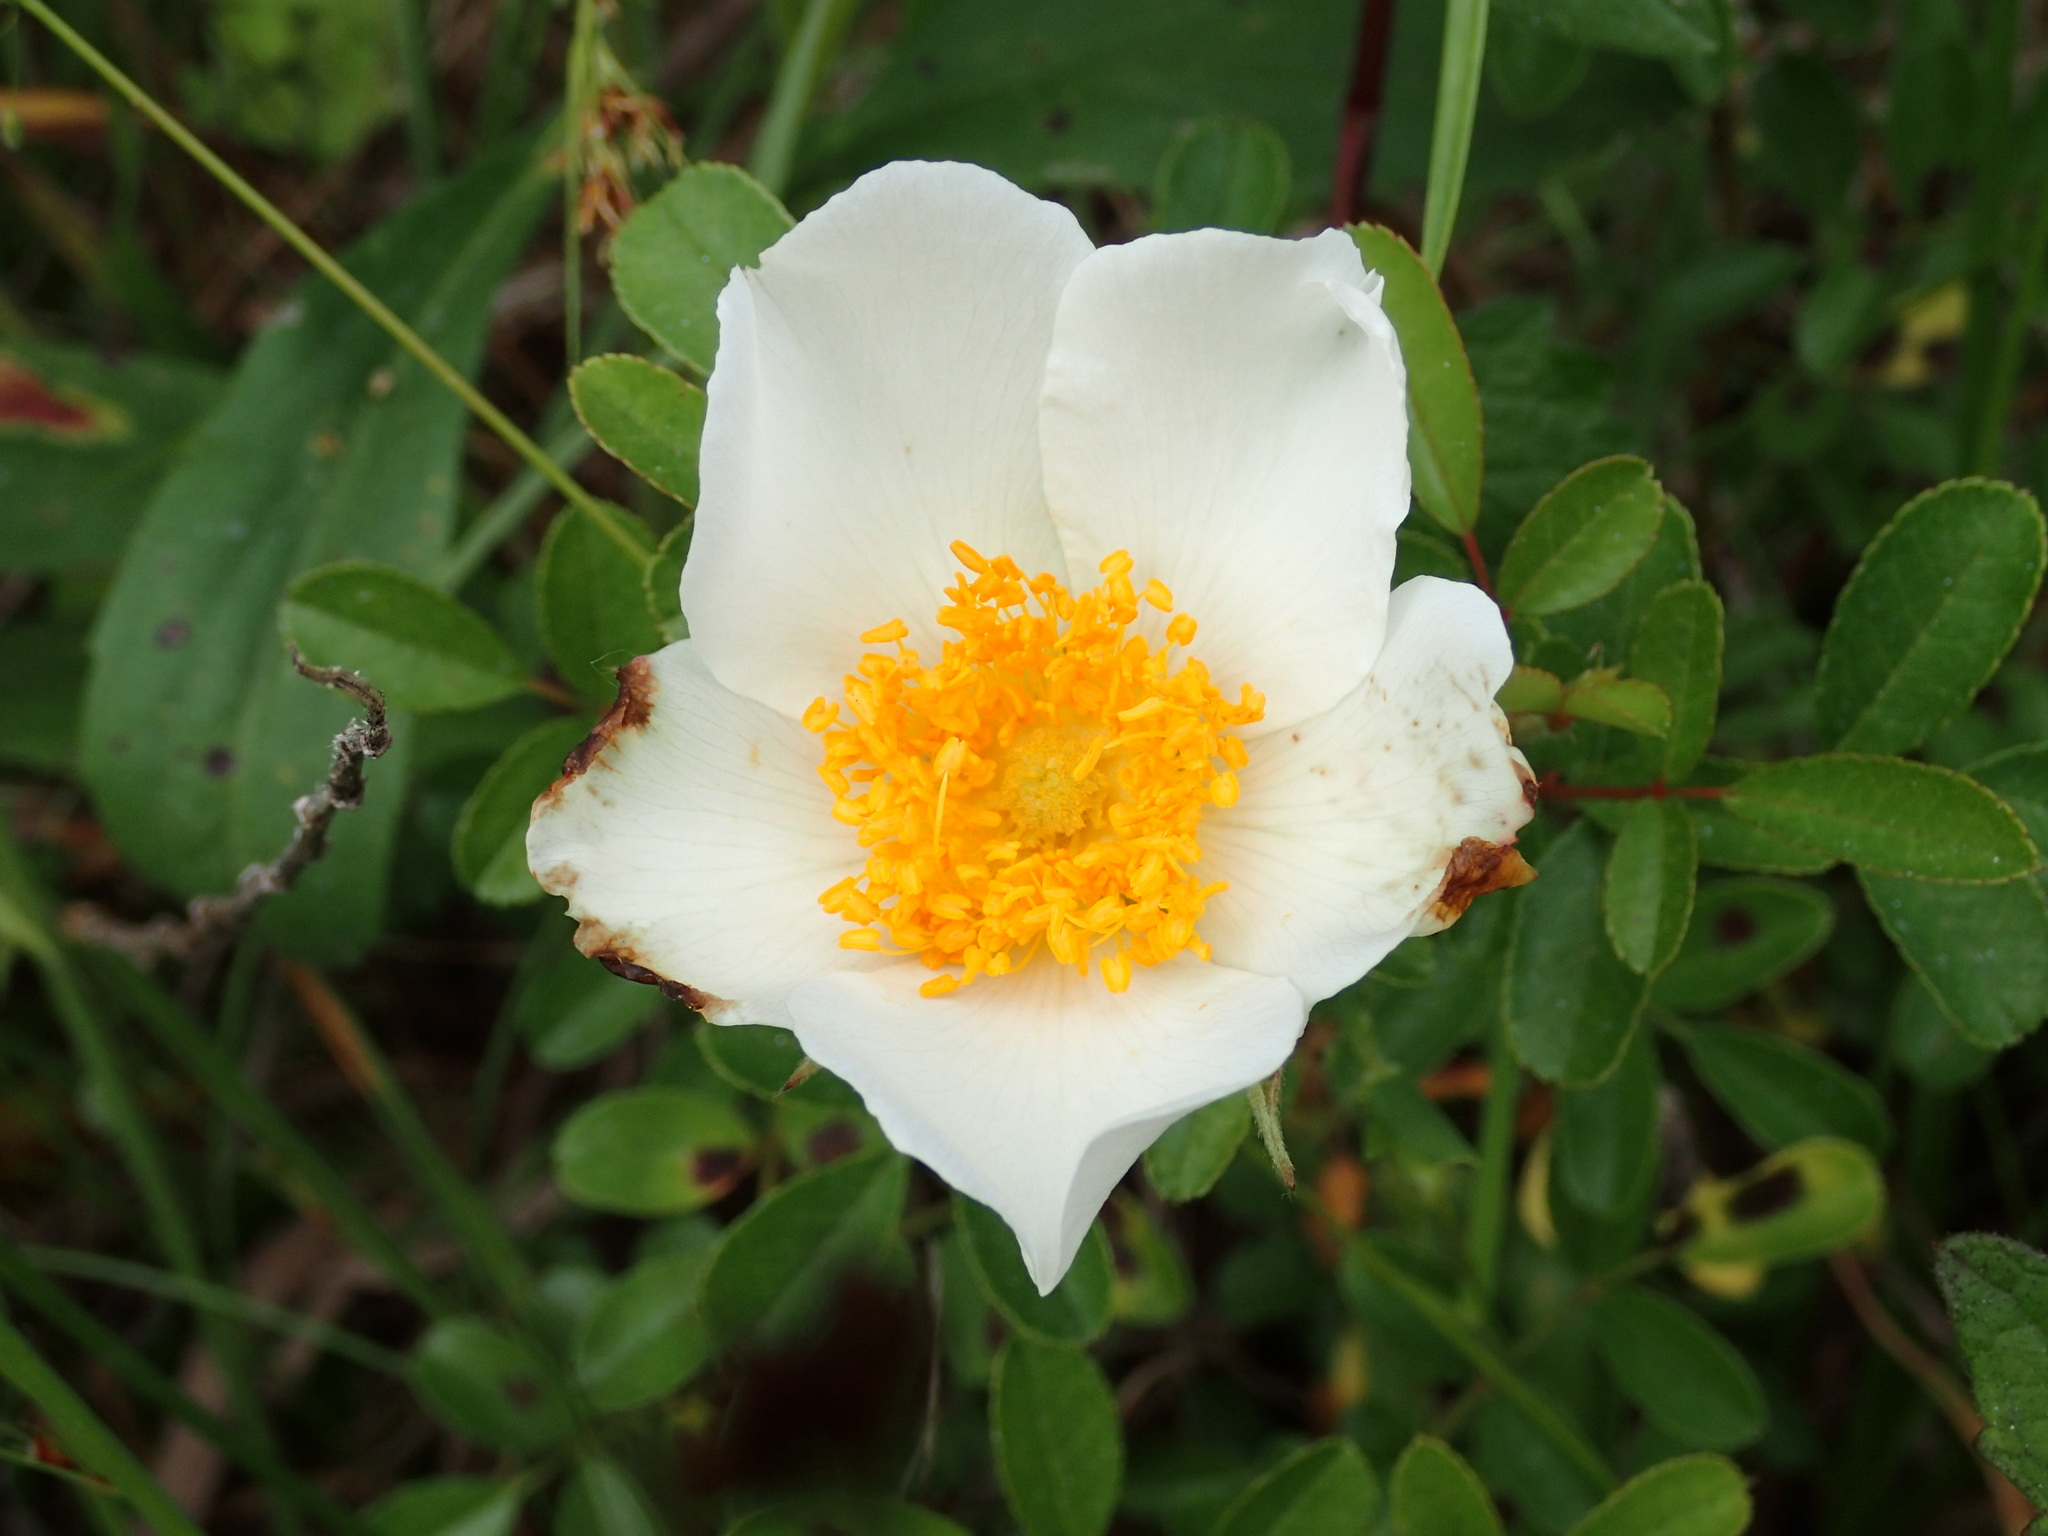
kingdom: Plantae
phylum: Tracheophyta
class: Magnoliopsida
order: Rosales
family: Rosaceae
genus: Rosa
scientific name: Rosa bracteata
